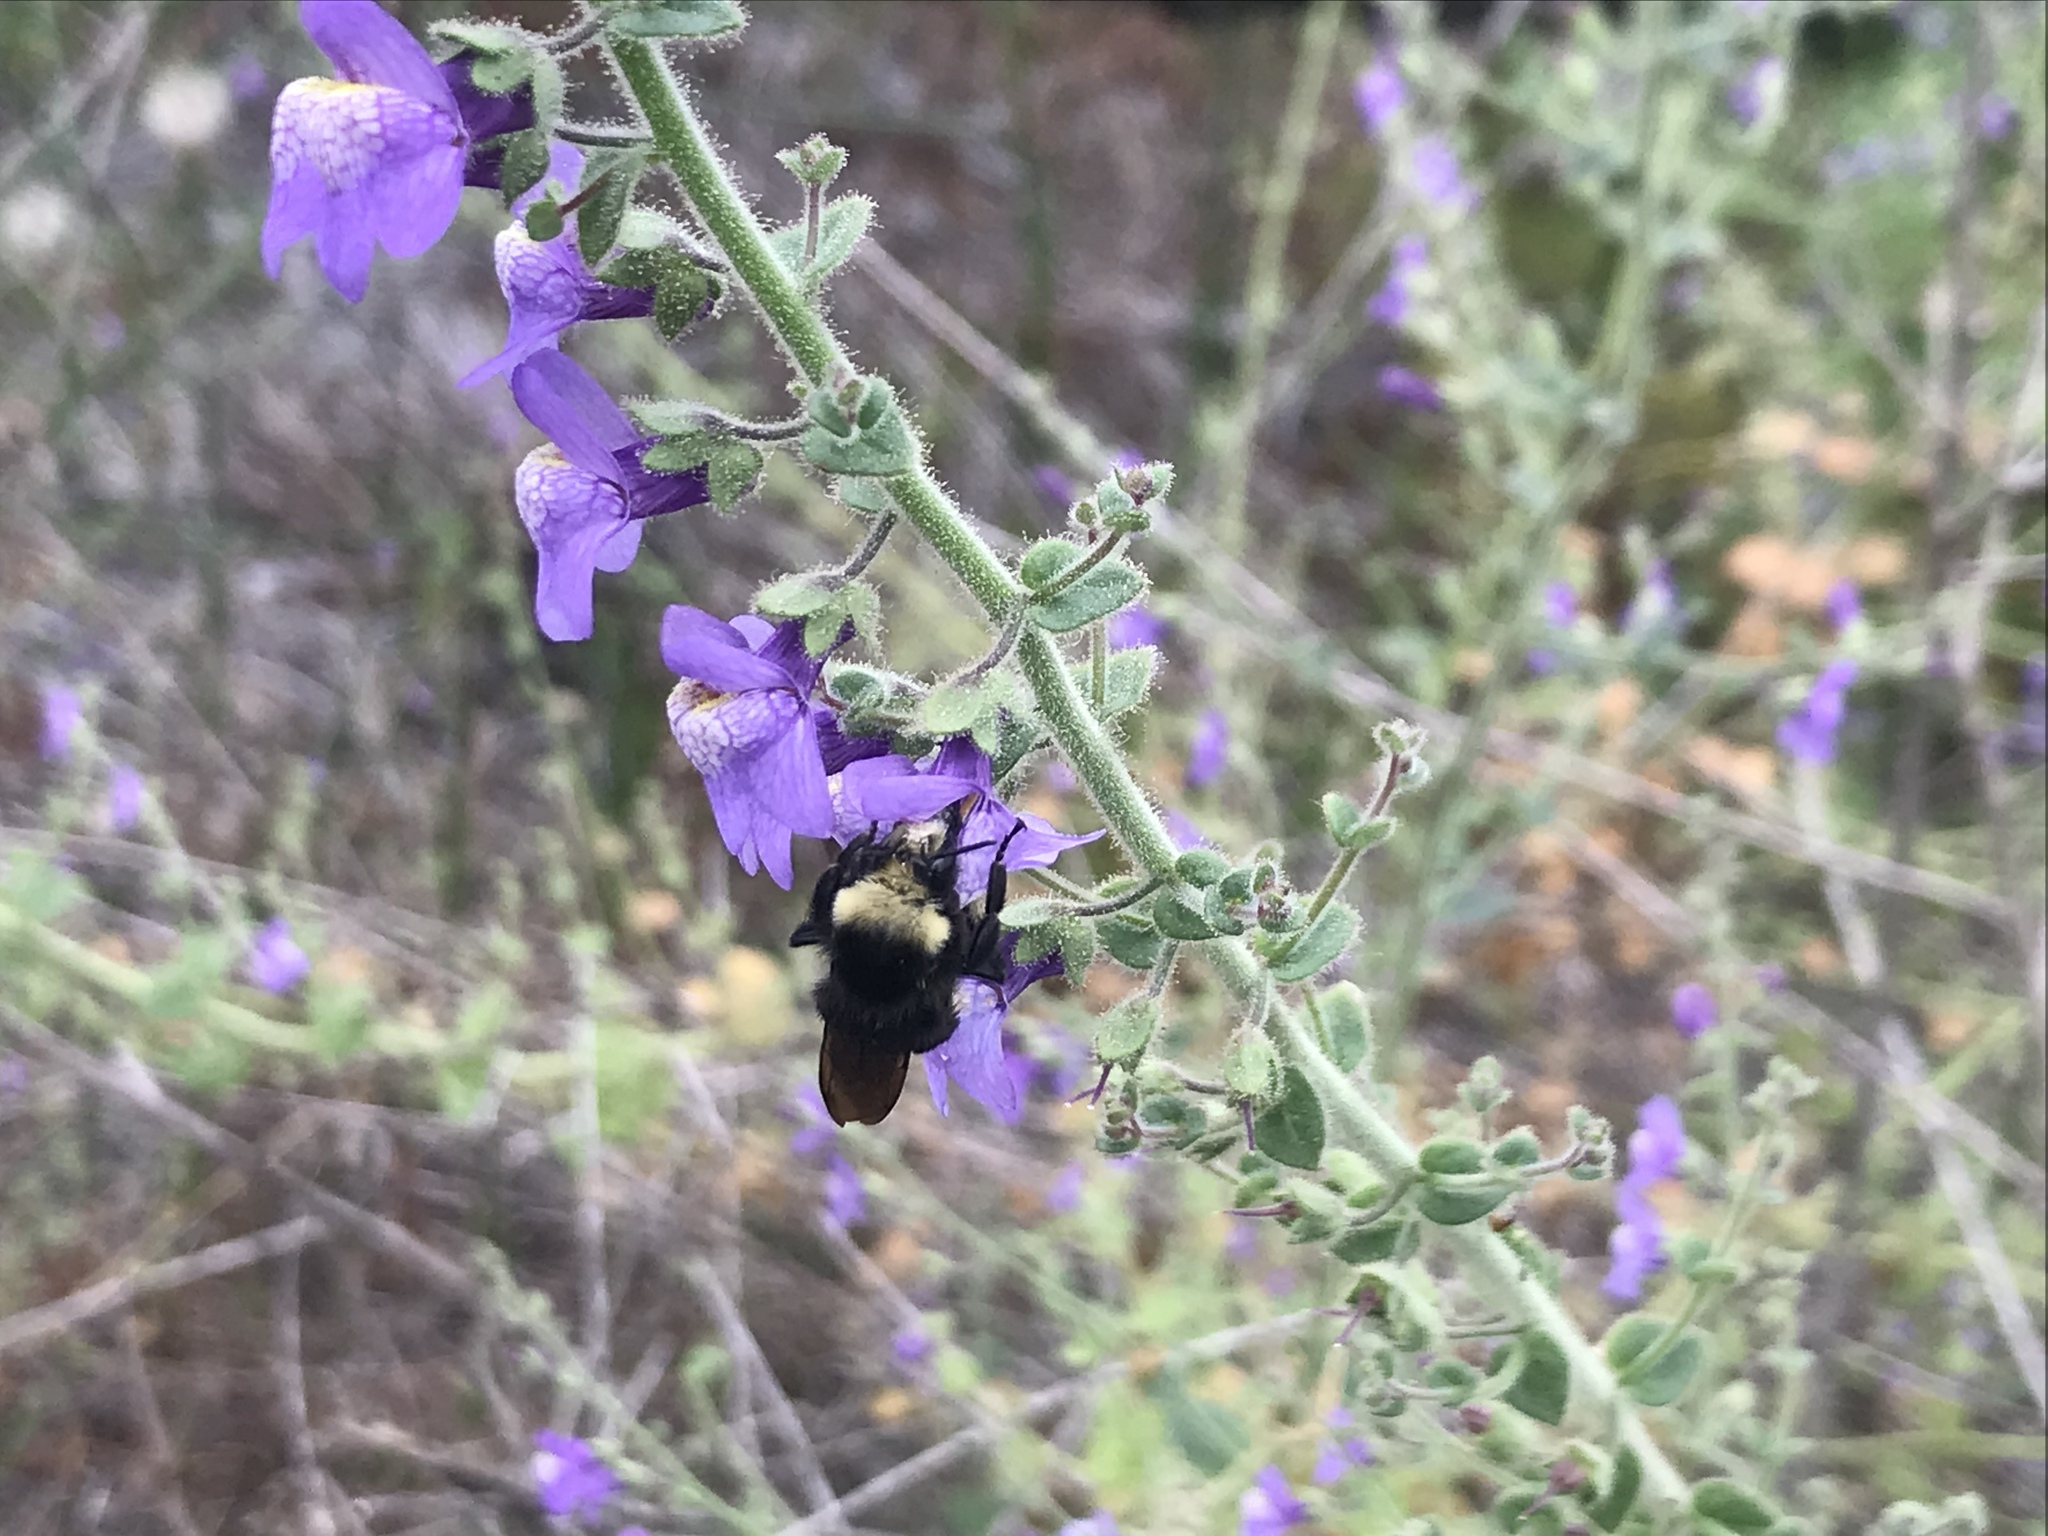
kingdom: Plantae
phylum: Tracheophyta
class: Magnoliopsida
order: Lamiales
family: Plantaginaceae
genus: Sairocarpus
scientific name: Sairocarpus nuttallianus
